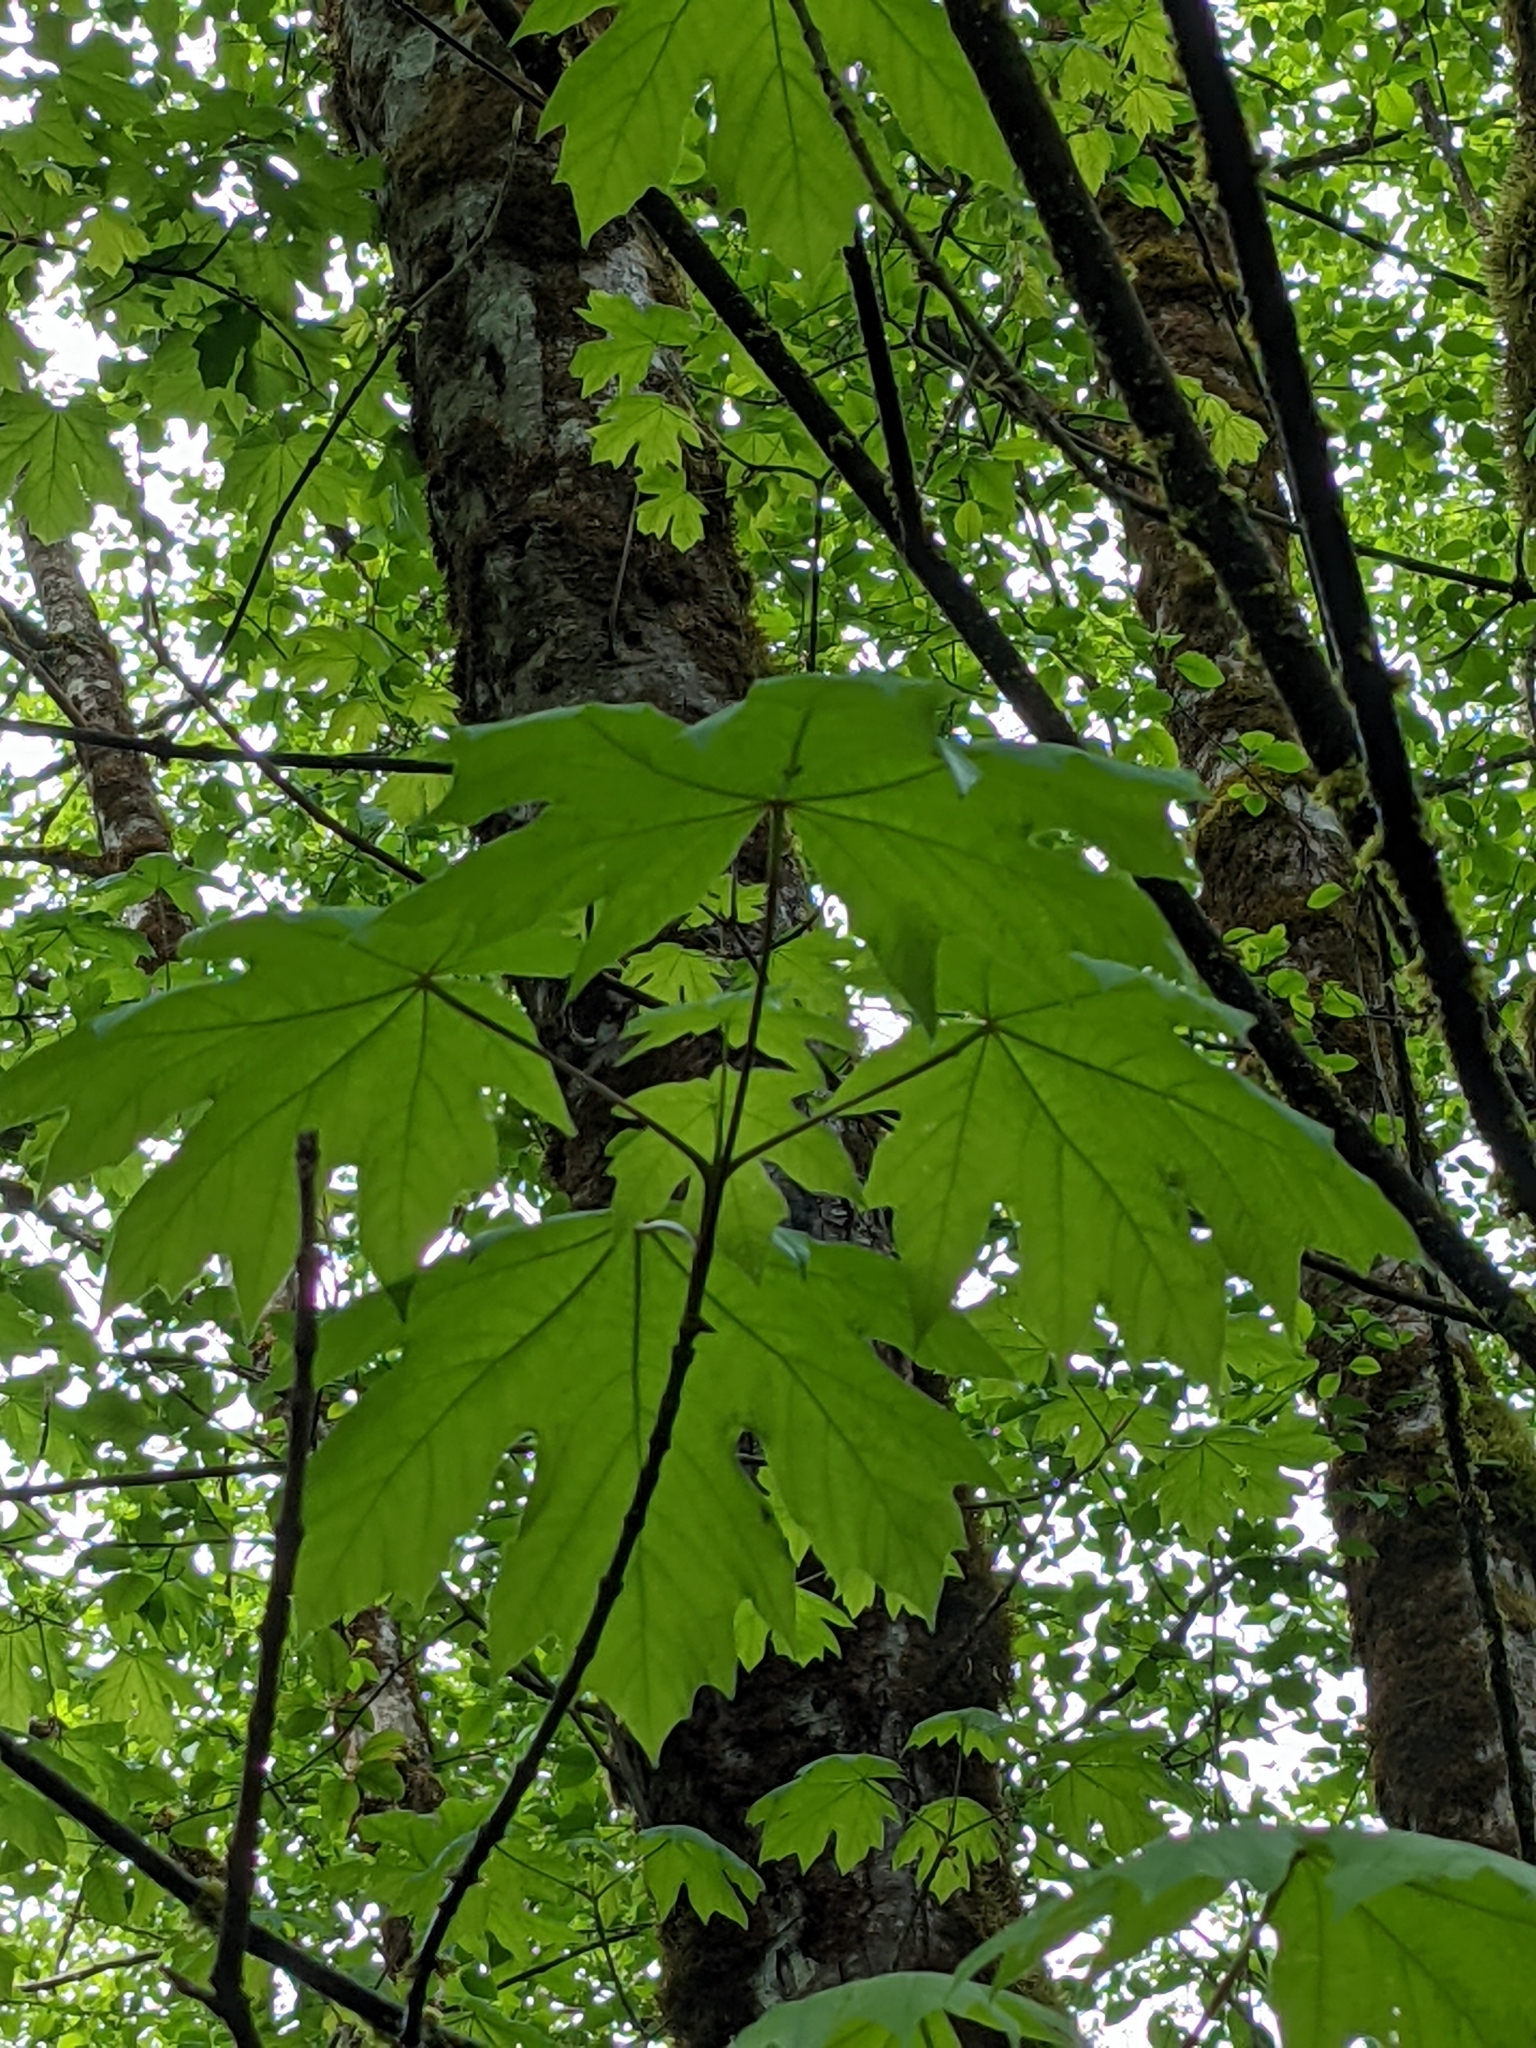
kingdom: Plantae
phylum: Tracheophyta
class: Magnoliopsida
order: Sapindales
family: Sapindaceae
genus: Acer
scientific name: Acer macrophyllum
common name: Oregon maple
